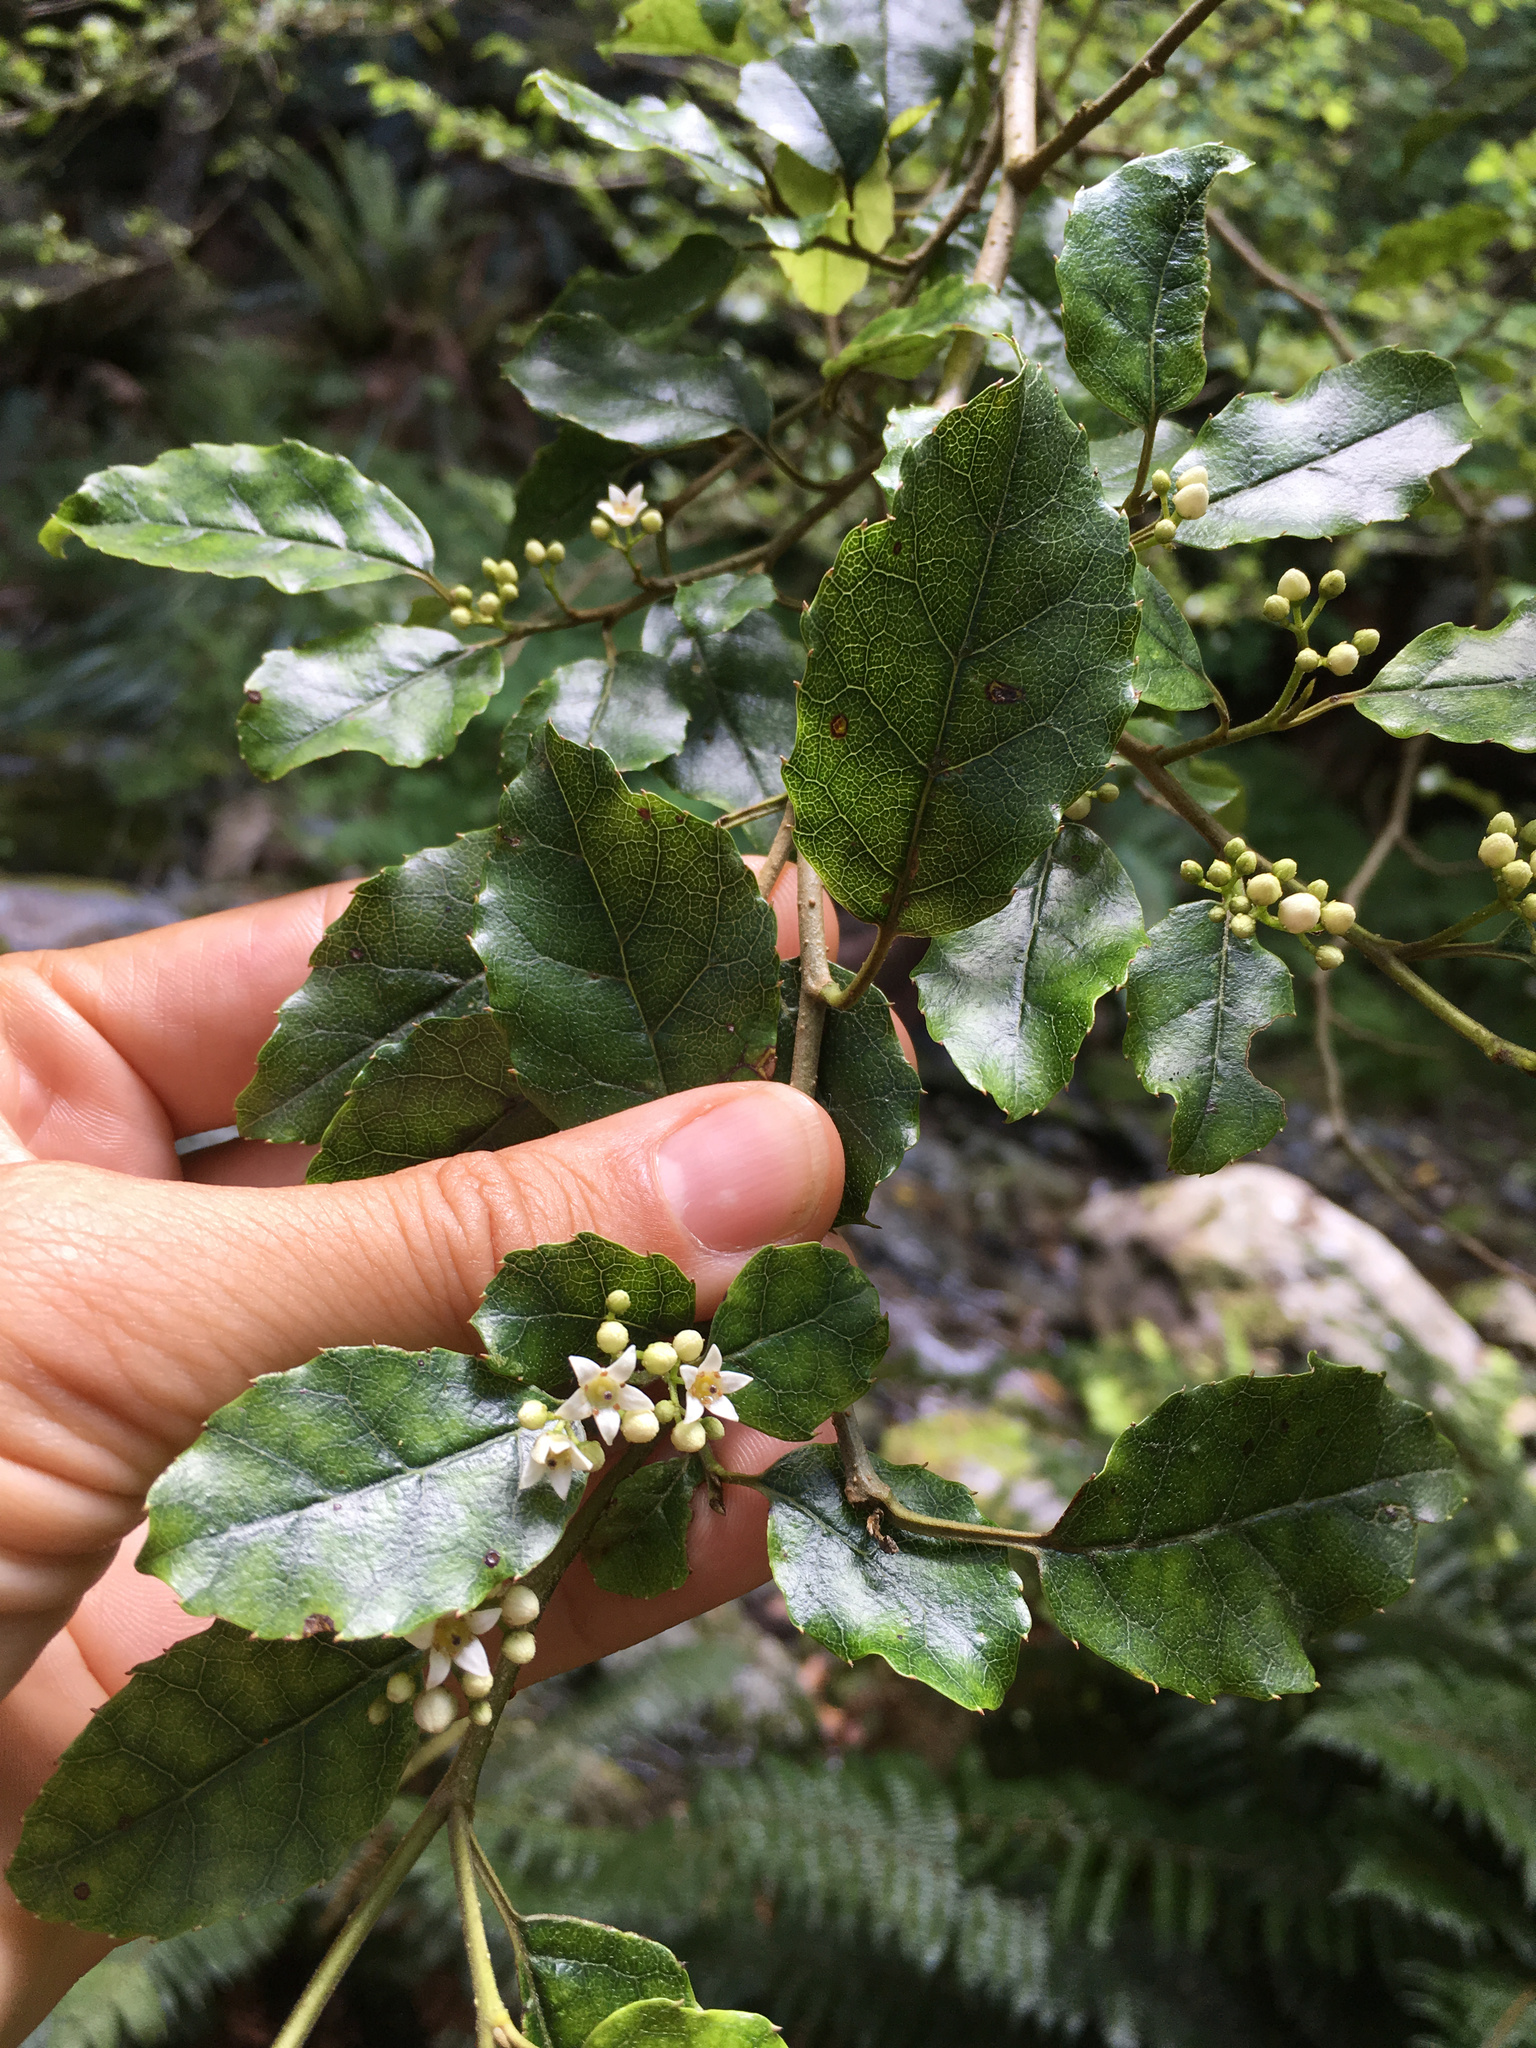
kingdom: Plantae
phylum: Tracheophyta
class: Magnoliopsida
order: Asterales
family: Rousseaceae
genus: Carpodetus
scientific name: Carpodetus serratus
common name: White mapau
